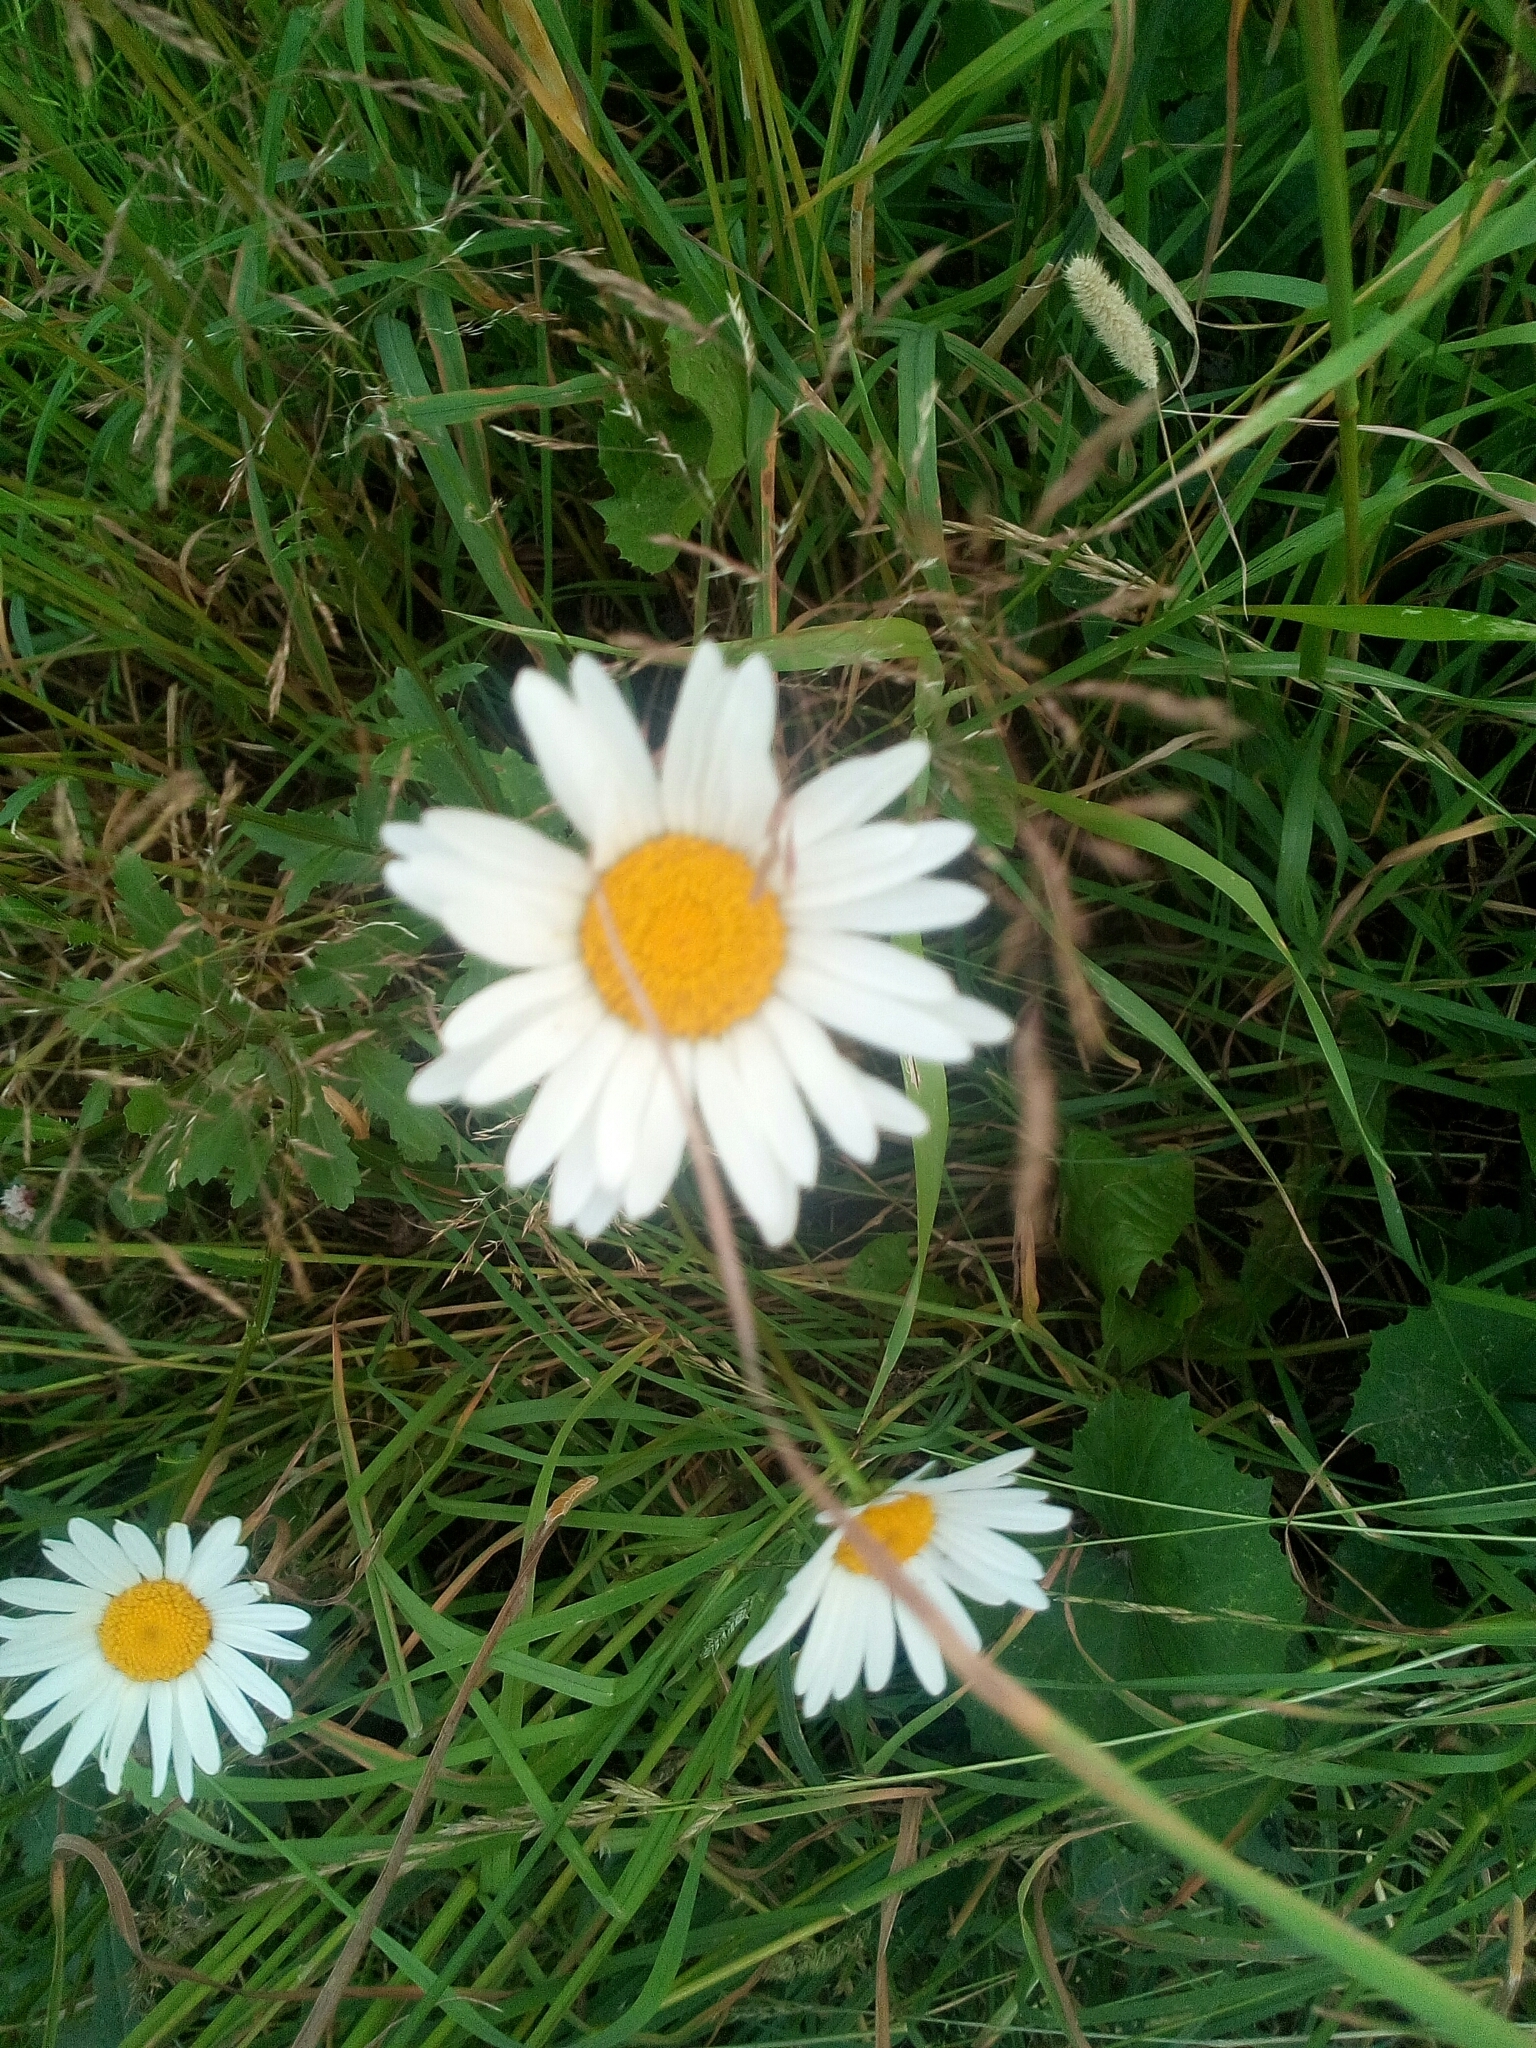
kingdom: Plantae
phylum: Tracheophyta
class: Magnoliopsida
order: Asterales
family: Asteraceae
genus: Leucanthemum
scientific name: Leucanthemum vulgare
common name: Oxeye daisy
